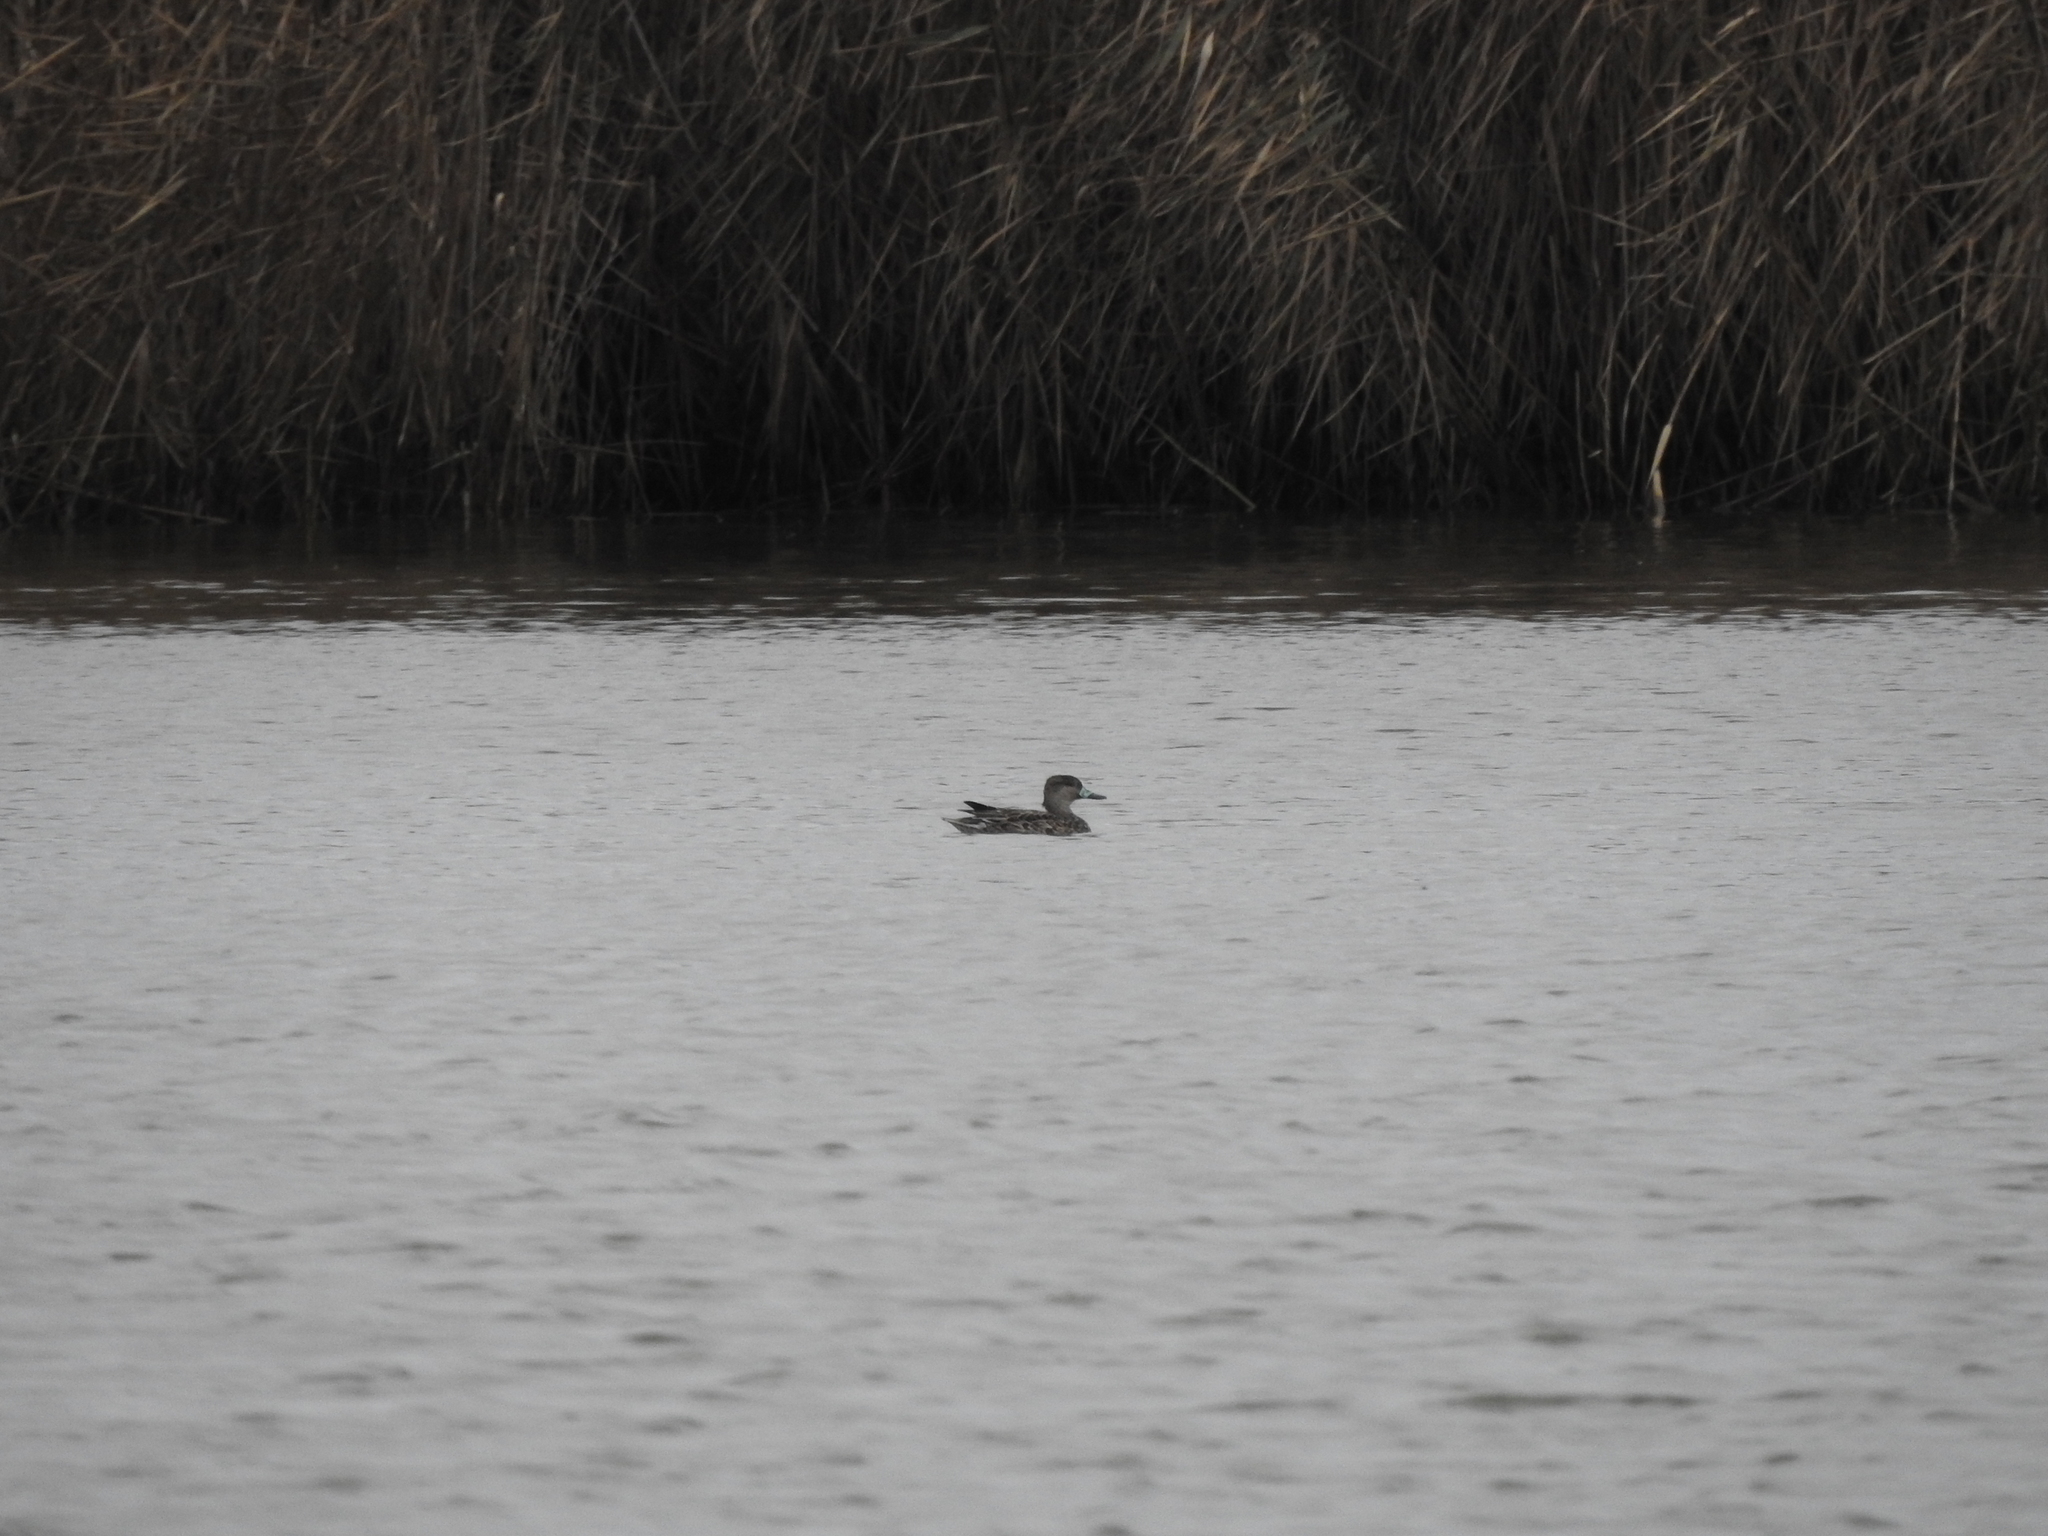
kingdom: Animalia
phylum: Chordata
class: Aves
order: Anseriformes
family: Anatidae
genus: Anas
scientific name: Anas crecca
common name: Eurasian teal
